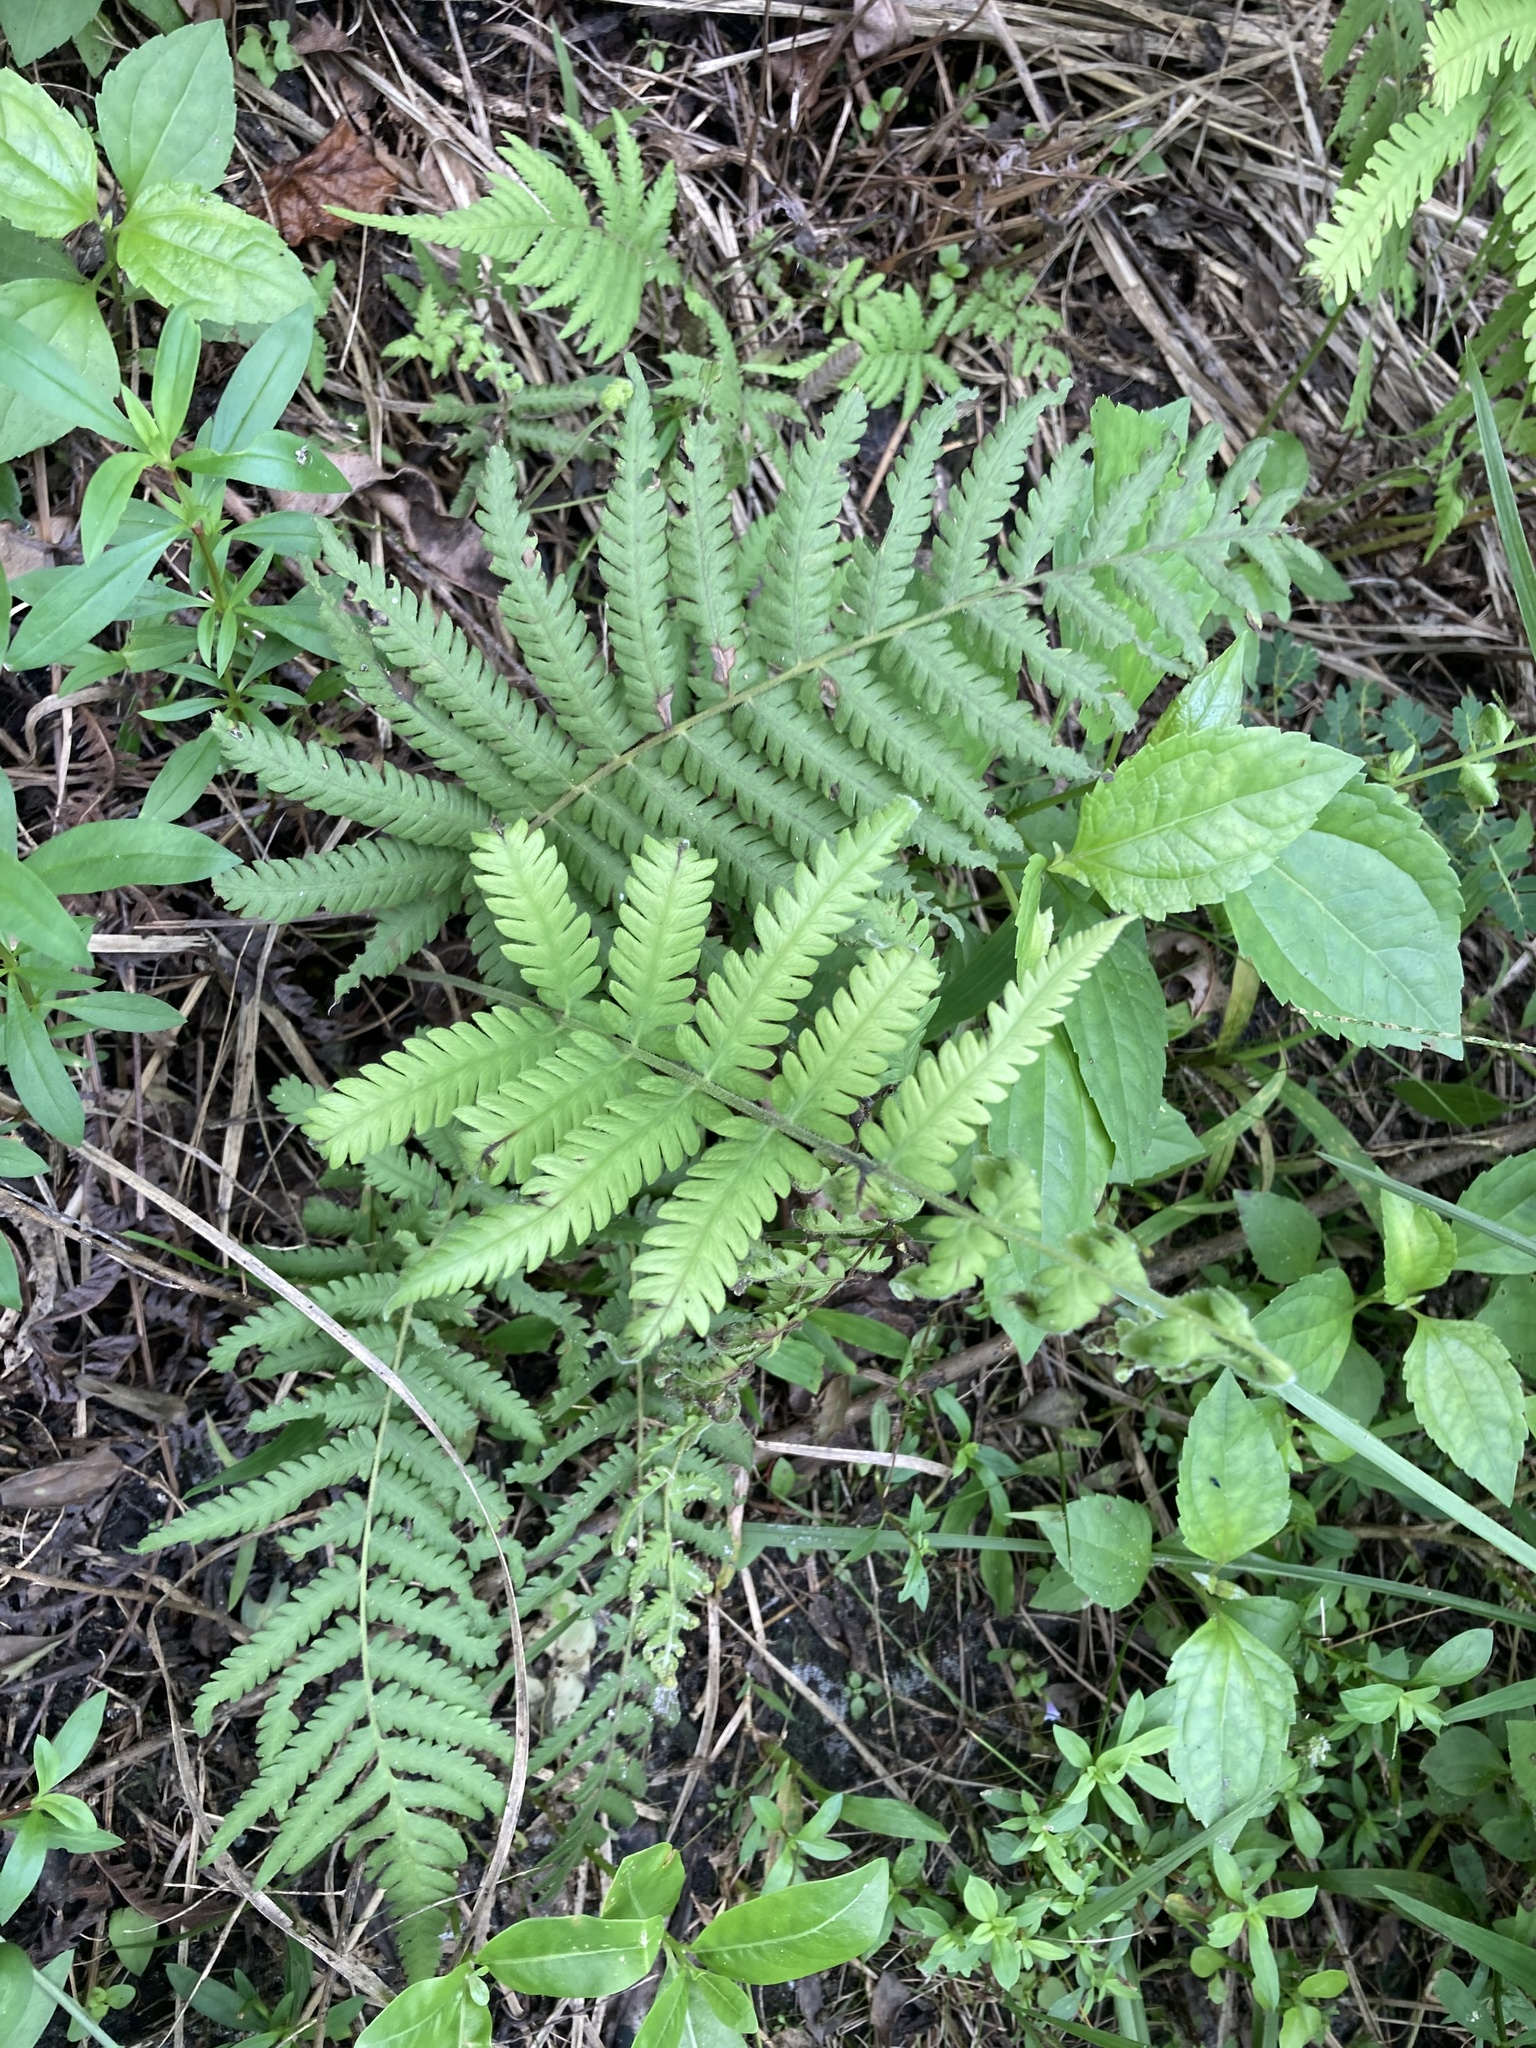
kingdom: Plantae
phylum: Tracheophyta
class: Polypodiopsida
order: Polypodiales
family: Thelypteridaceae
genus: Pelazoneuron
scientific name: Pelazoneuron kunthii
